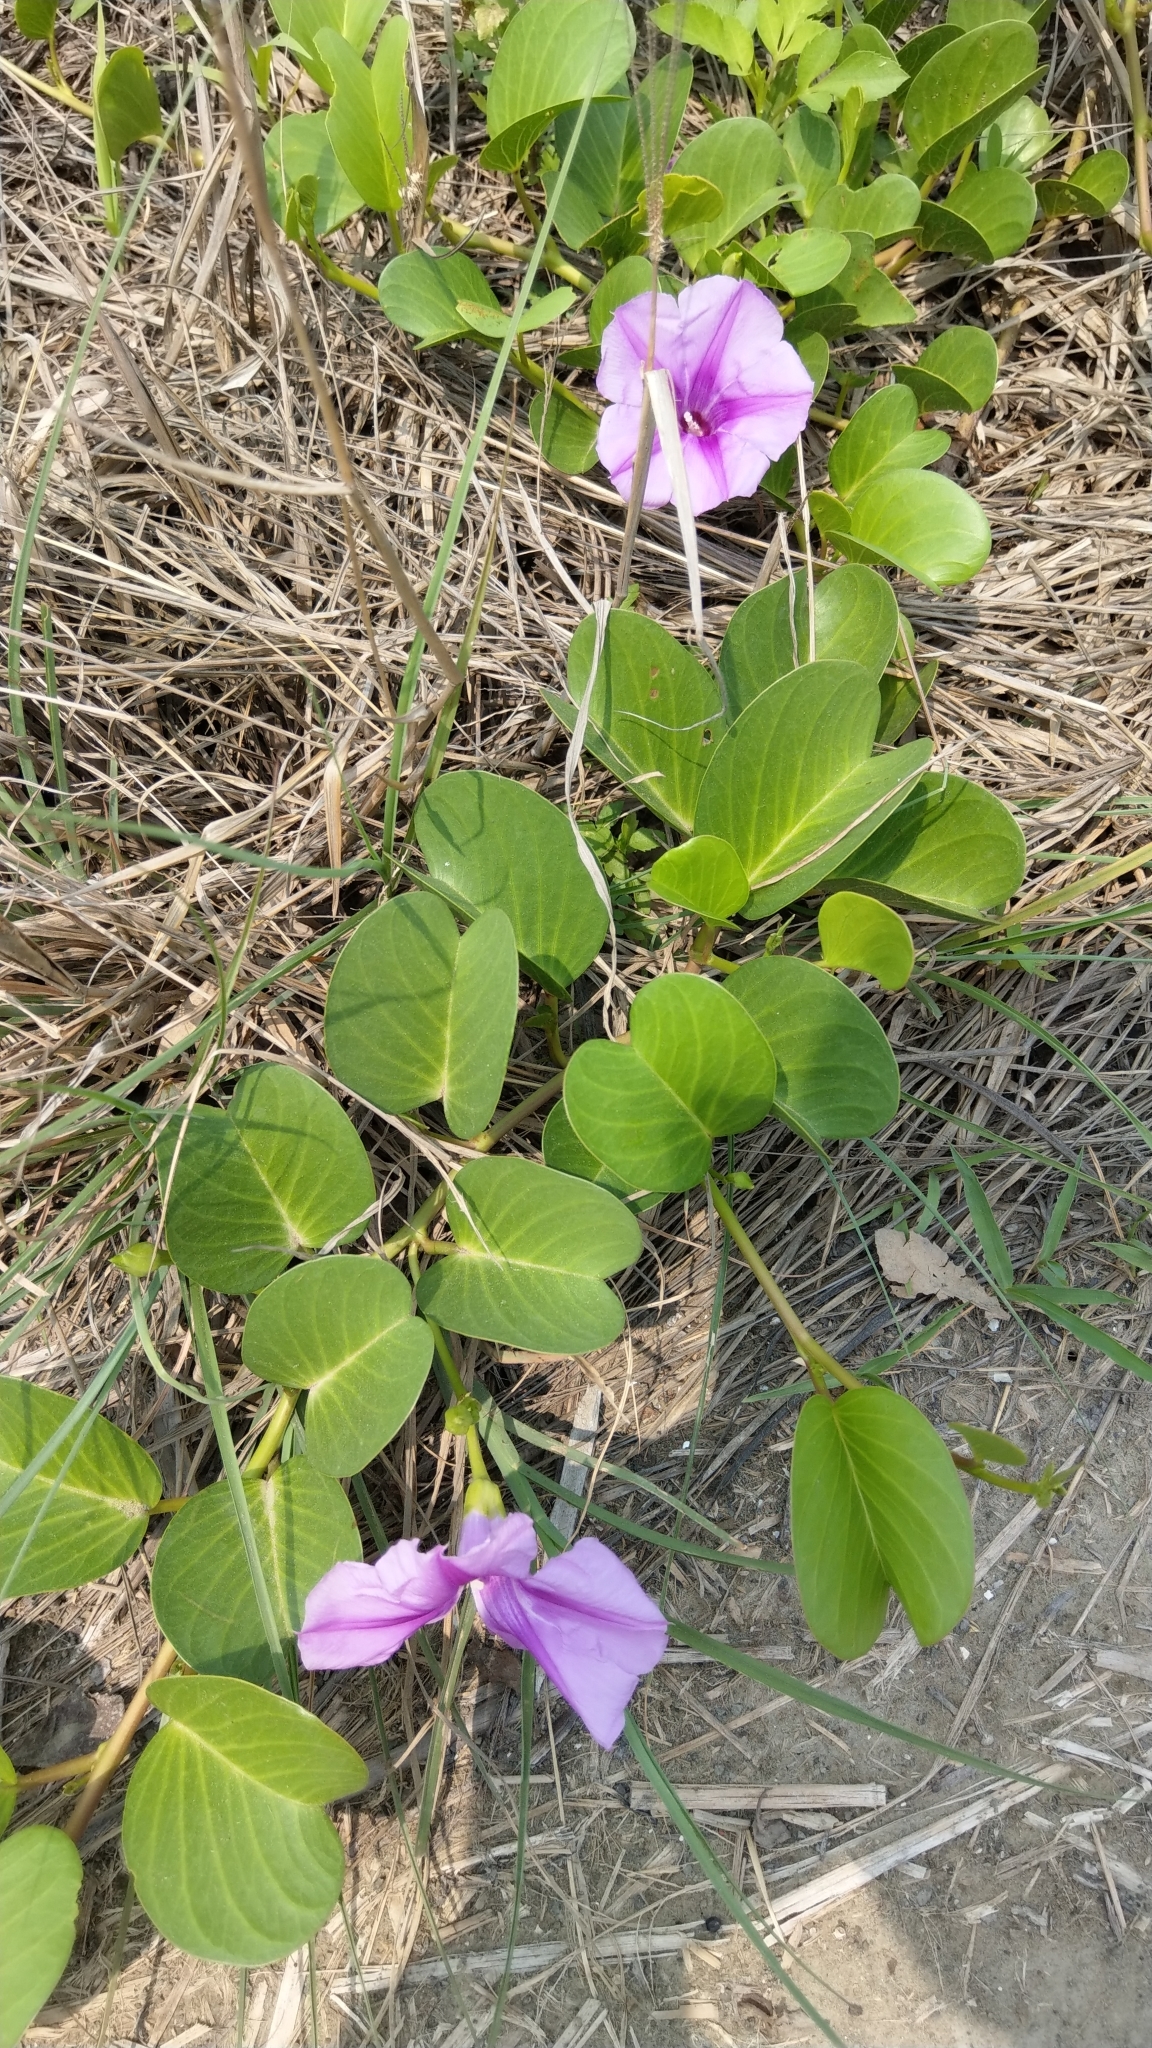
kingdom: Plantae
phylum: Tracheophyta
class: Magnoliopsida
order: Solanales
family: Convolvulaceae
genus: Ipomoea
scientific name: Ipomoea pes-caprae
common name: Beach morning glory
